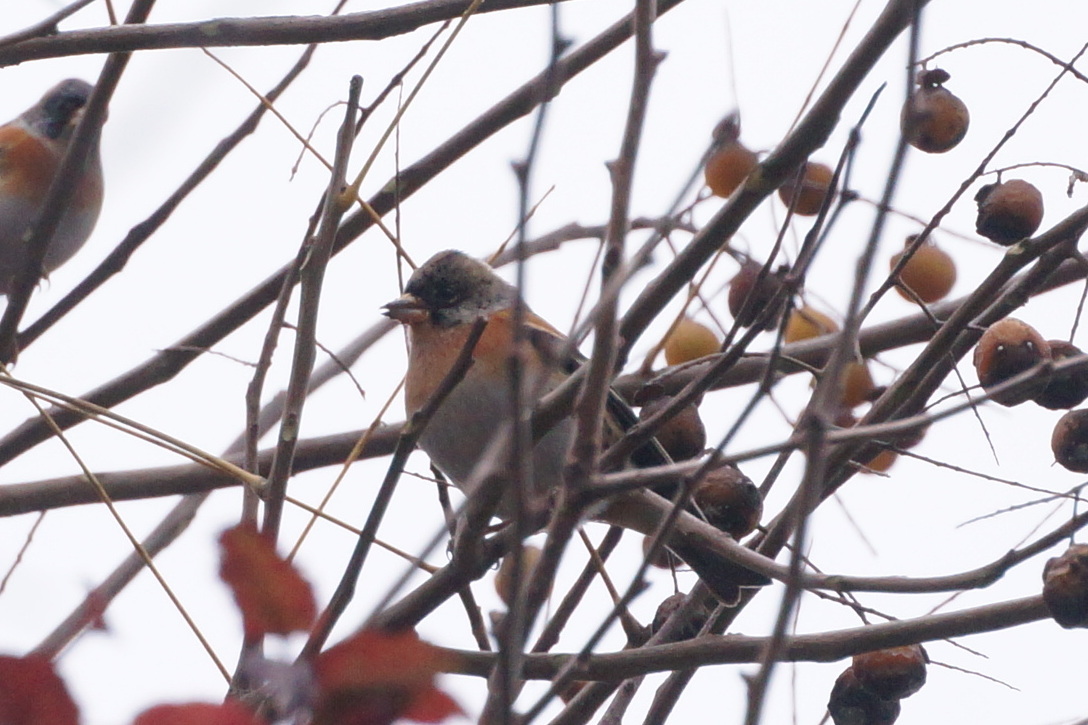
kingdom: Animalia
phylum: Chordata
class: Aves
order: Passeriformes
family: Fringillidae
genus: Fringilla
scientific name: Fringilla montifringilla
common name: Brambling
